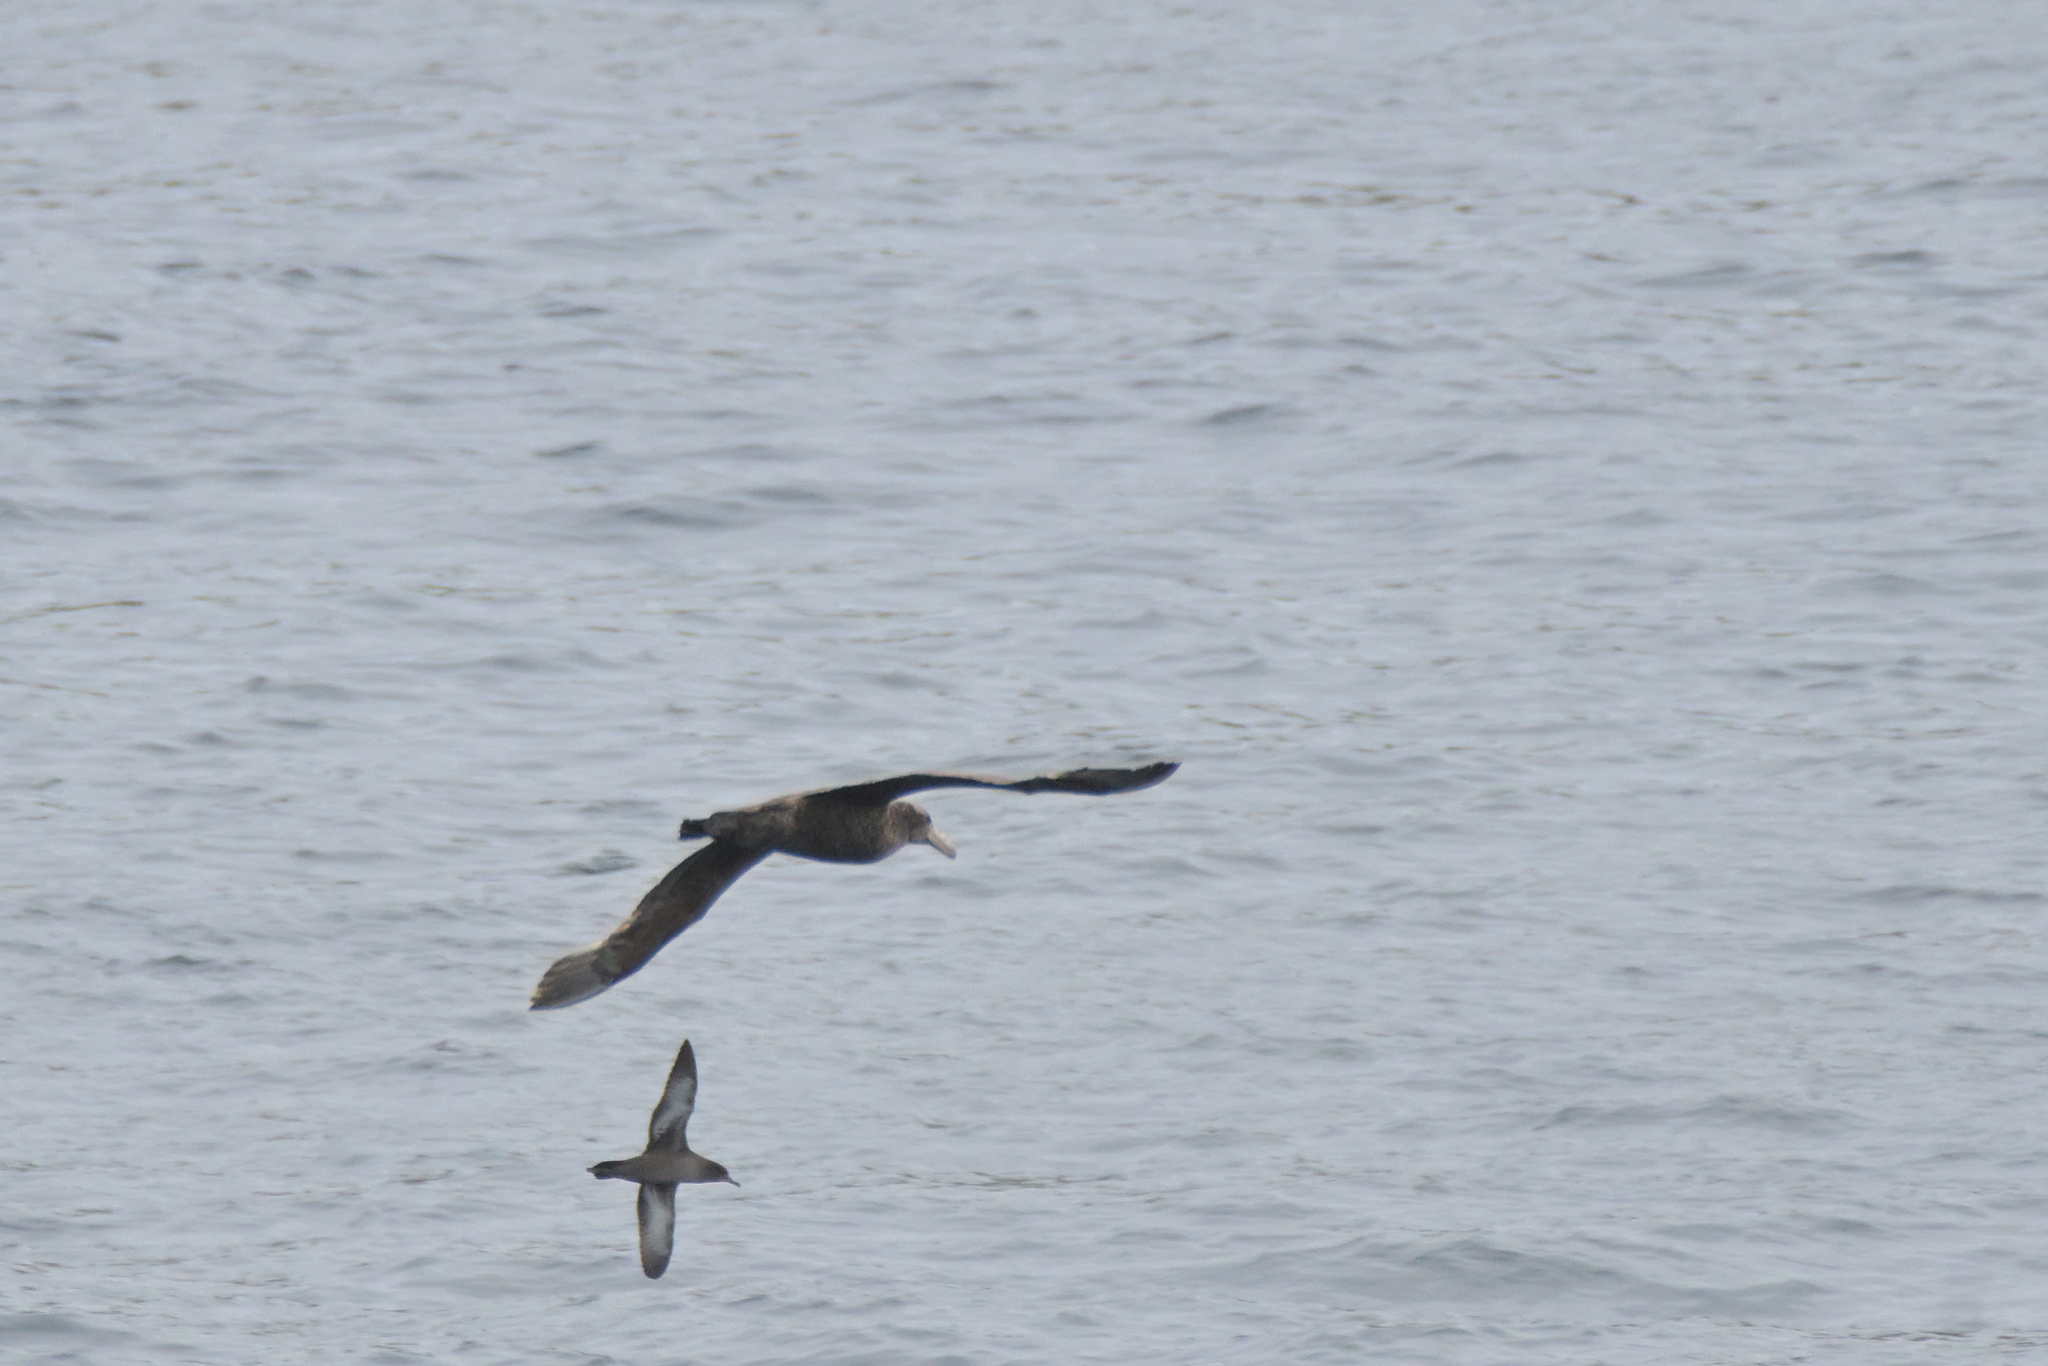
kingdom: Animalia
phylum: Chordata
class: Aves
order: Procellariiformes
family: Procellariidae
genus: Macronectes
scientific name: Macronectes halli
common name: Northern giant petrel
